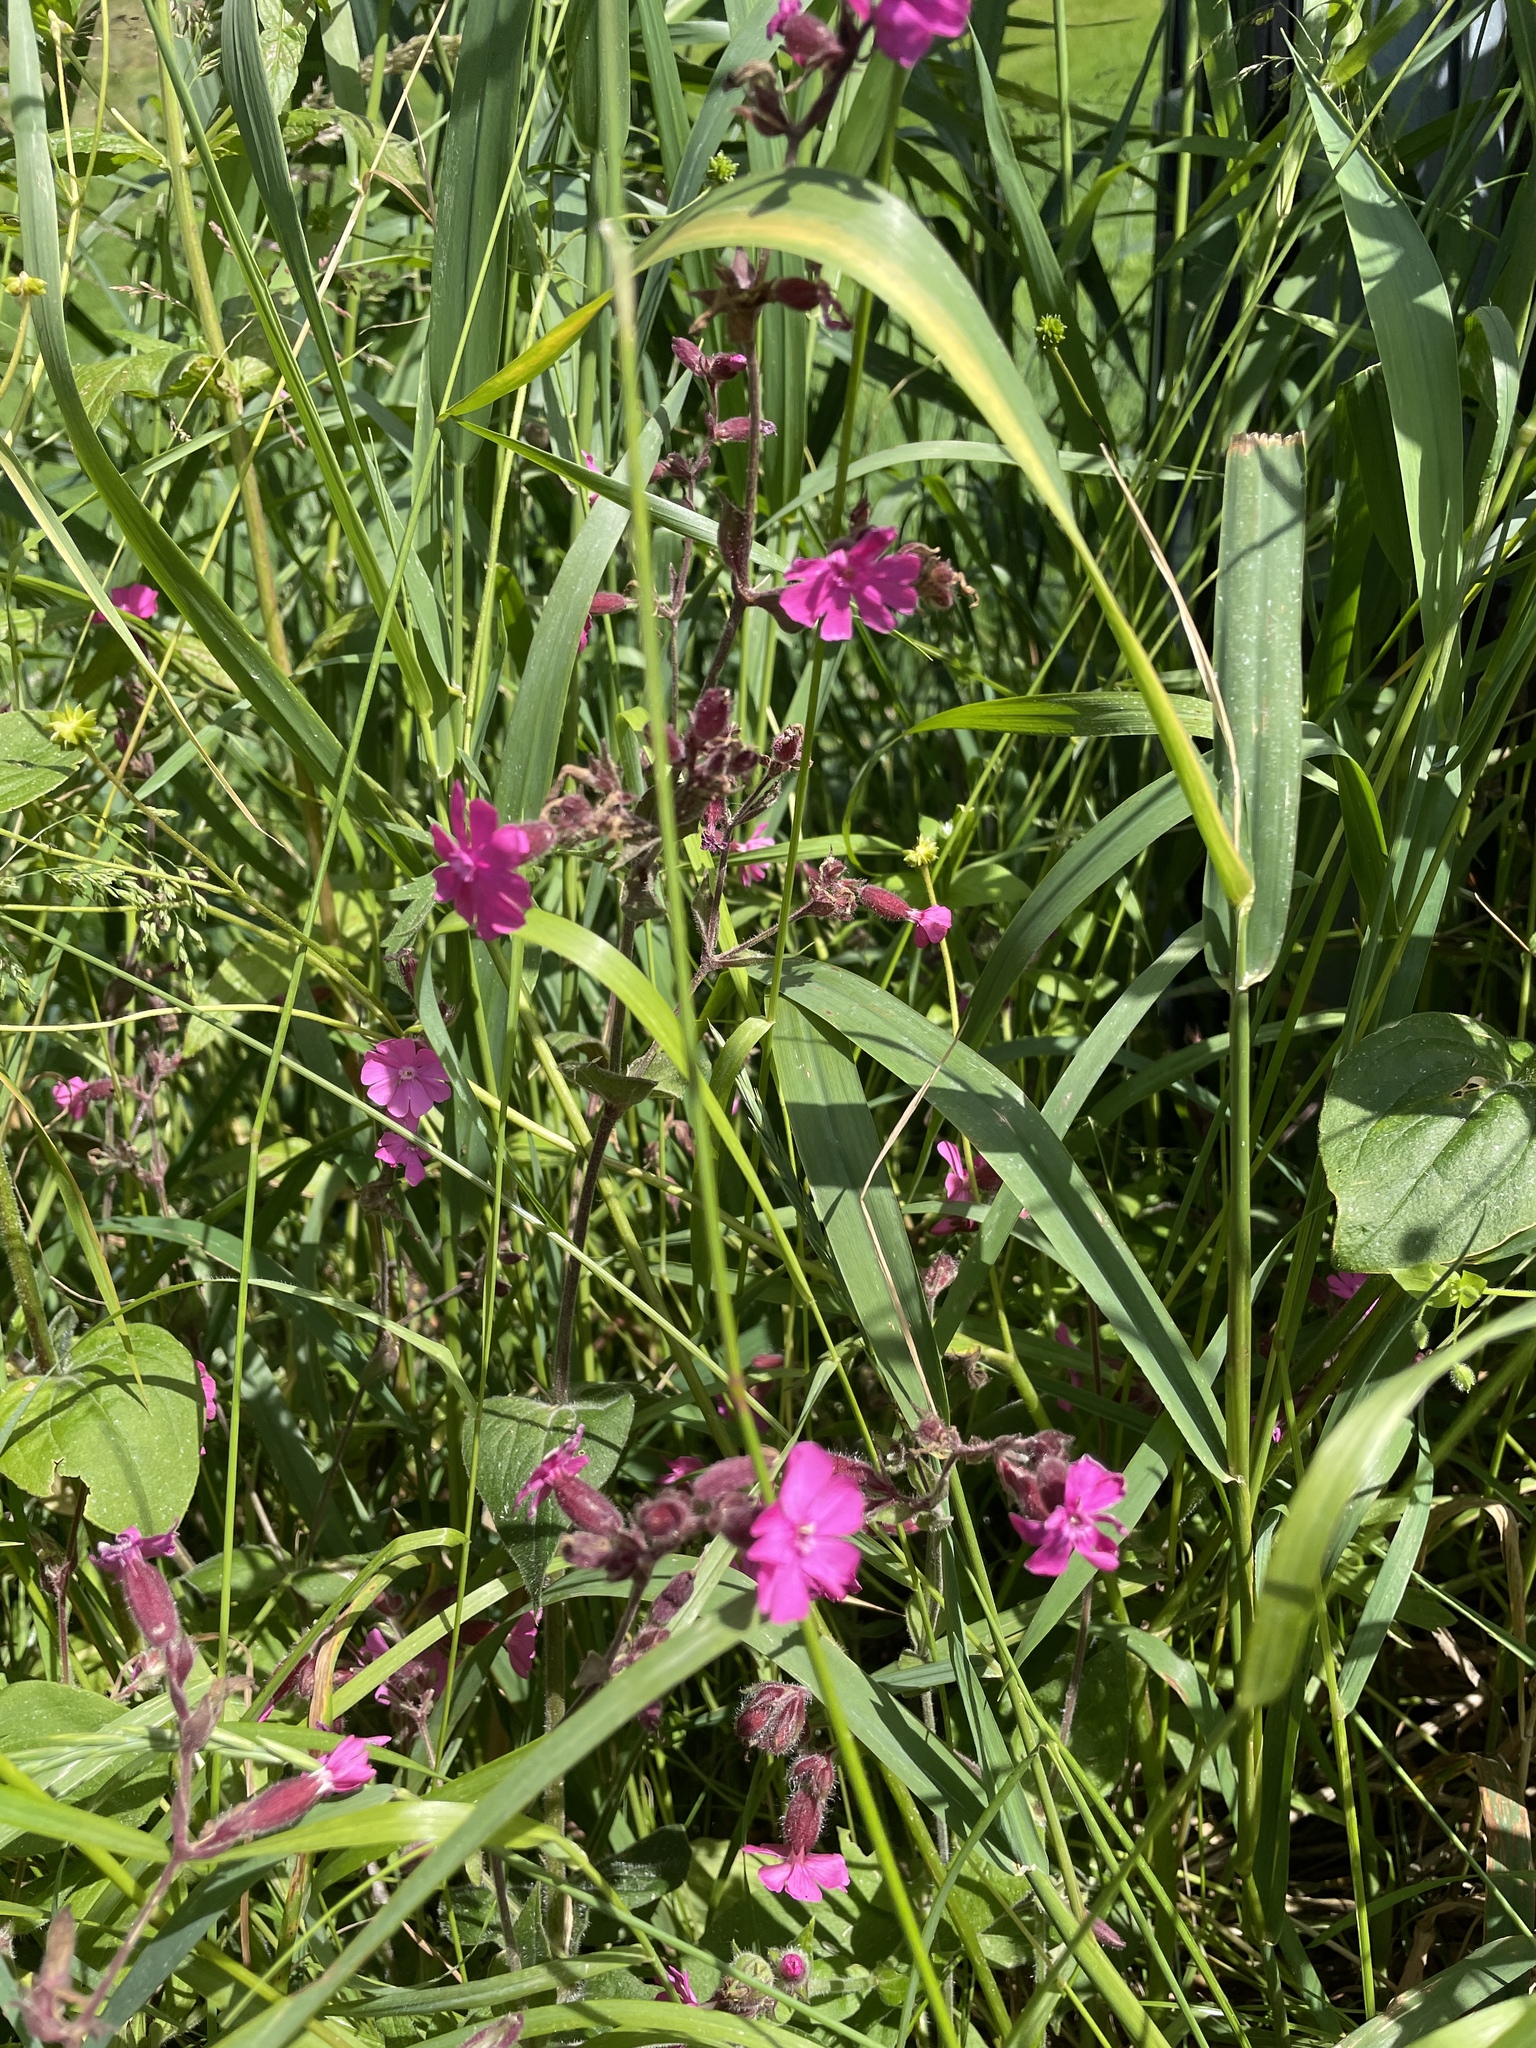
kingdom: Plantae
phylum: Tracheophyta
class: Magnoliopsida
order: Caryophyllales
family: Caryophyllaceae
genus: Silene
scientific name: Silene dioica
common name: Red campion
